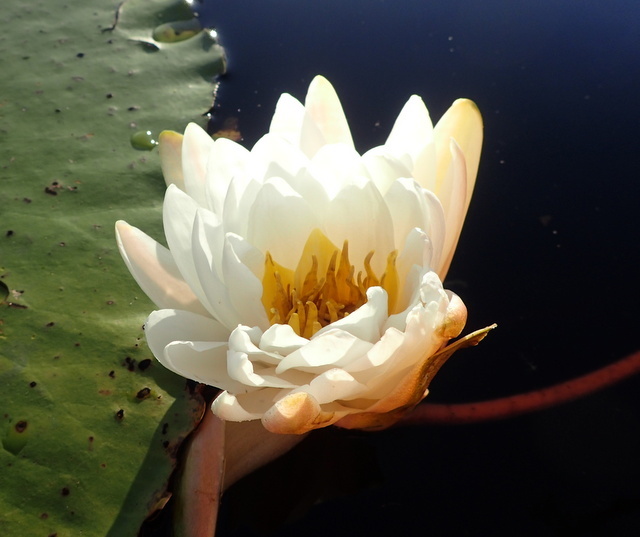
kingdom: Plantae
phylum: Tracheophyta
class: Magnoliopsida
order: Nymphaeales
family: Nymphaeaceae
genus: Nymphaea
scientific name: Nymphaea odorata
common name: Fragrant water-lily
